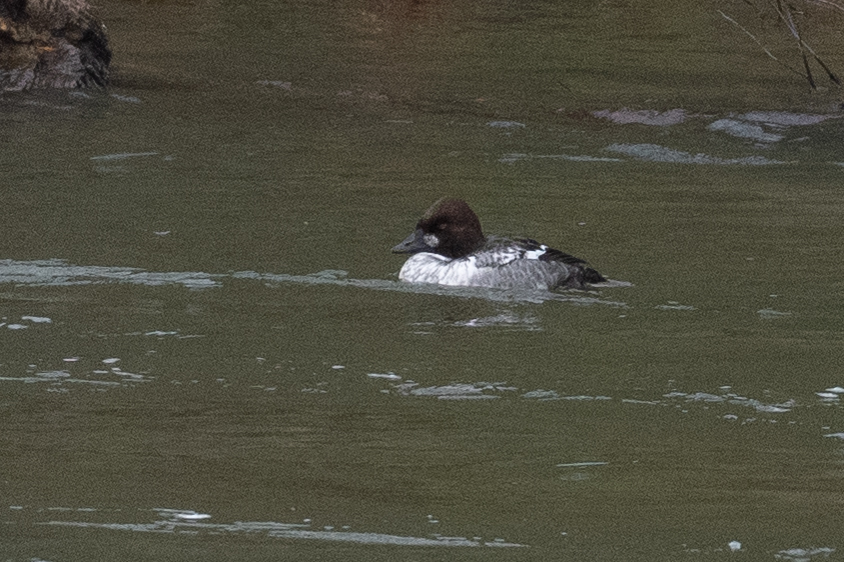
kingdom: Animalia
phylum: Chordata
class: Aves
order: Anseriformes
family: Anatidae
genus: Bucephala
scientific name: Bucephala clangula
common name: Common goldeneye
